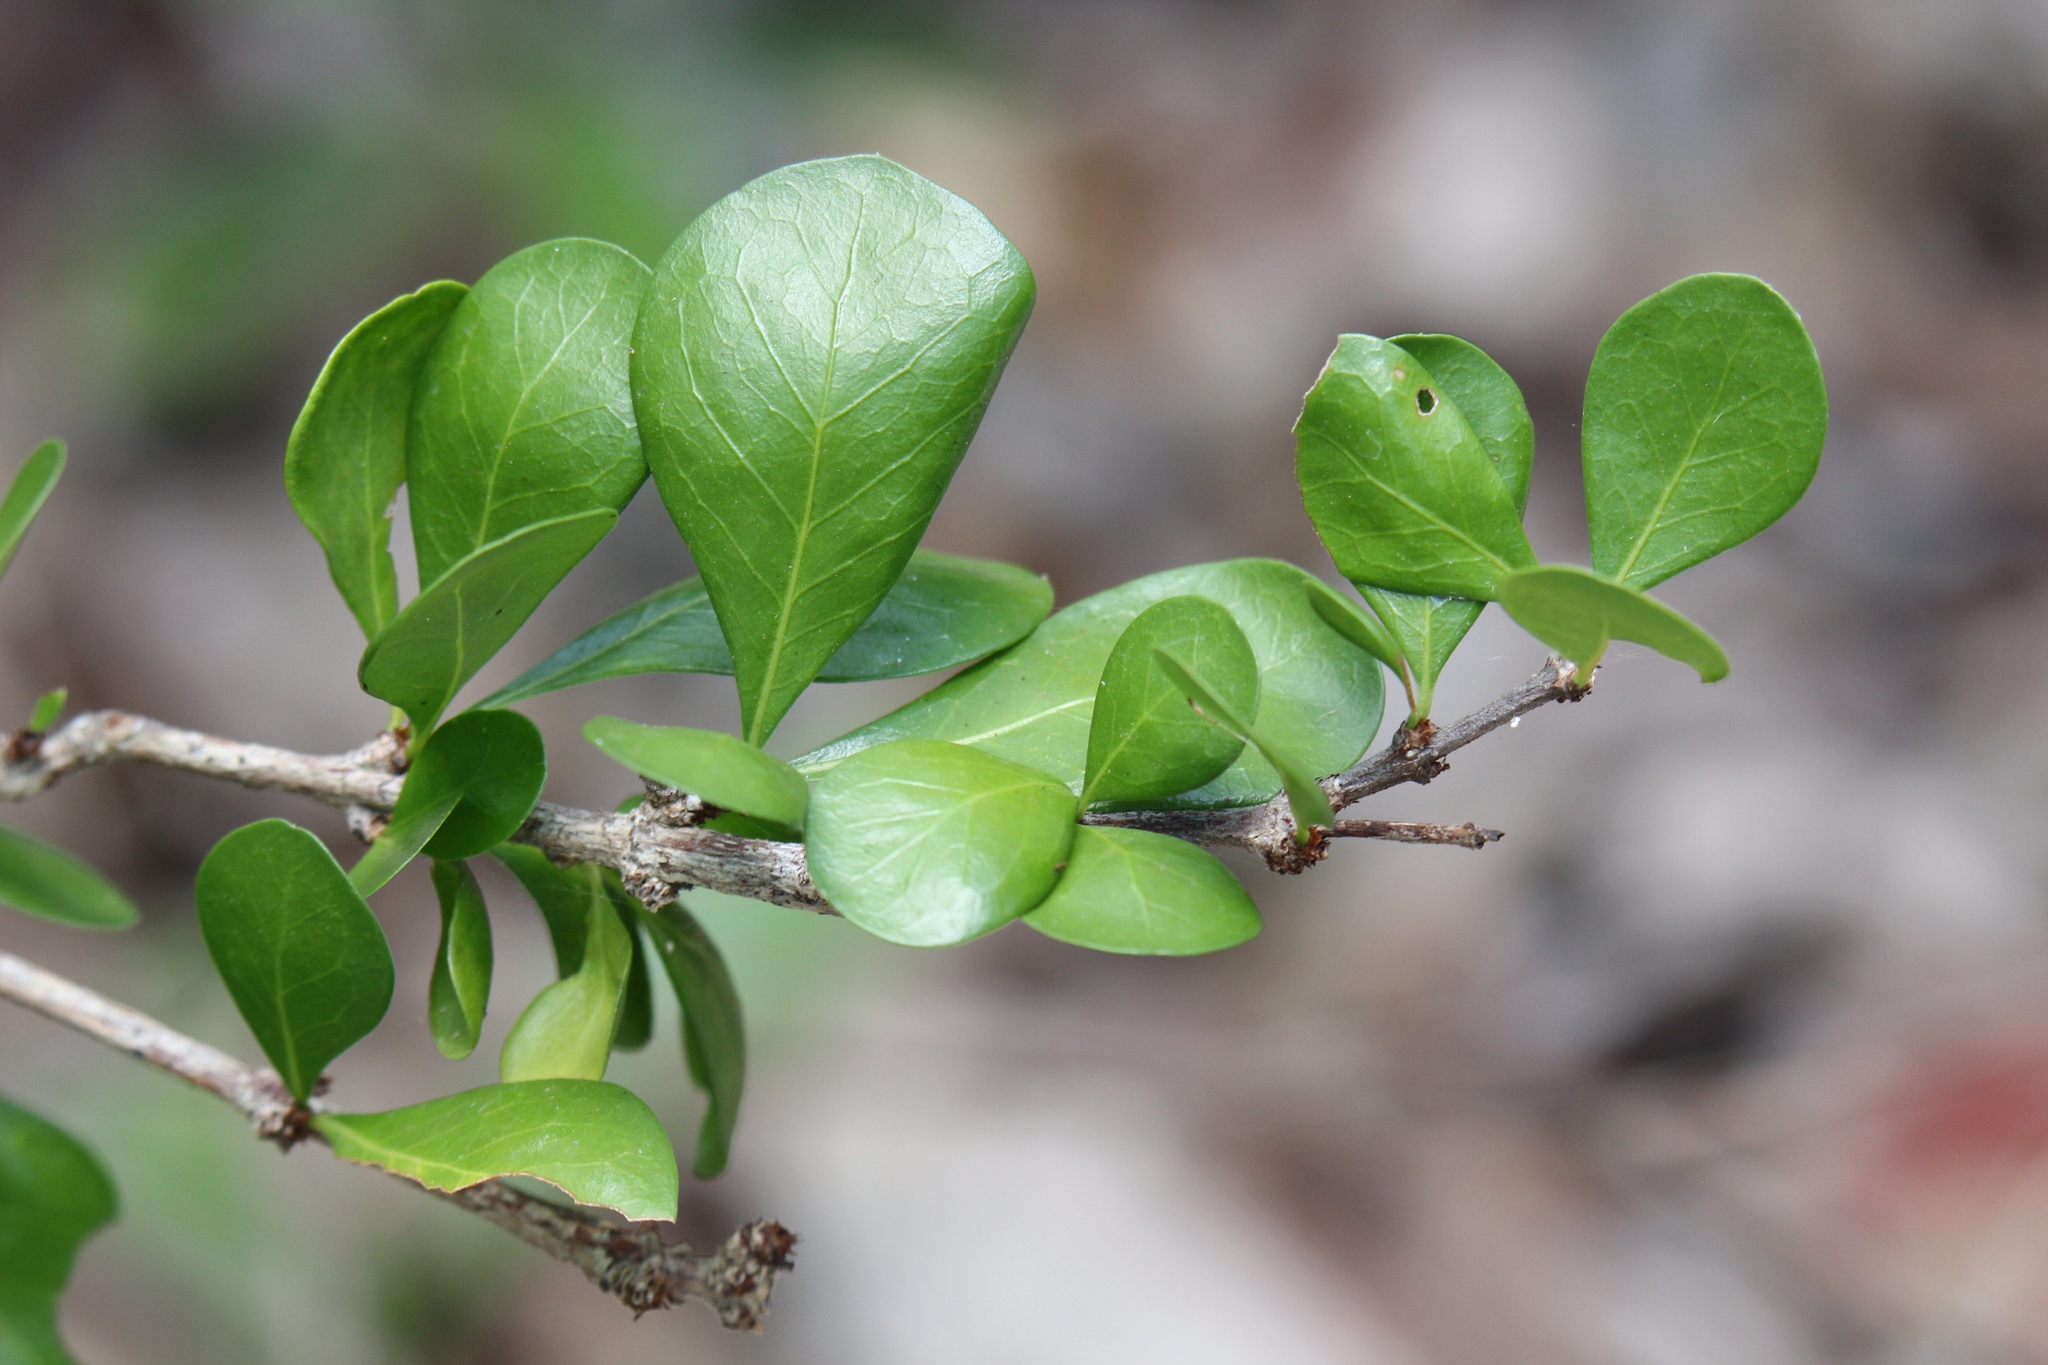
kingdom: Plantae
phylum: Tracheophyta
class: Magnoliopsida
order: Gentianales
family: Rubiaceae
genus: Randia
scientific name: Randia aculeata
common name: Inkberry
